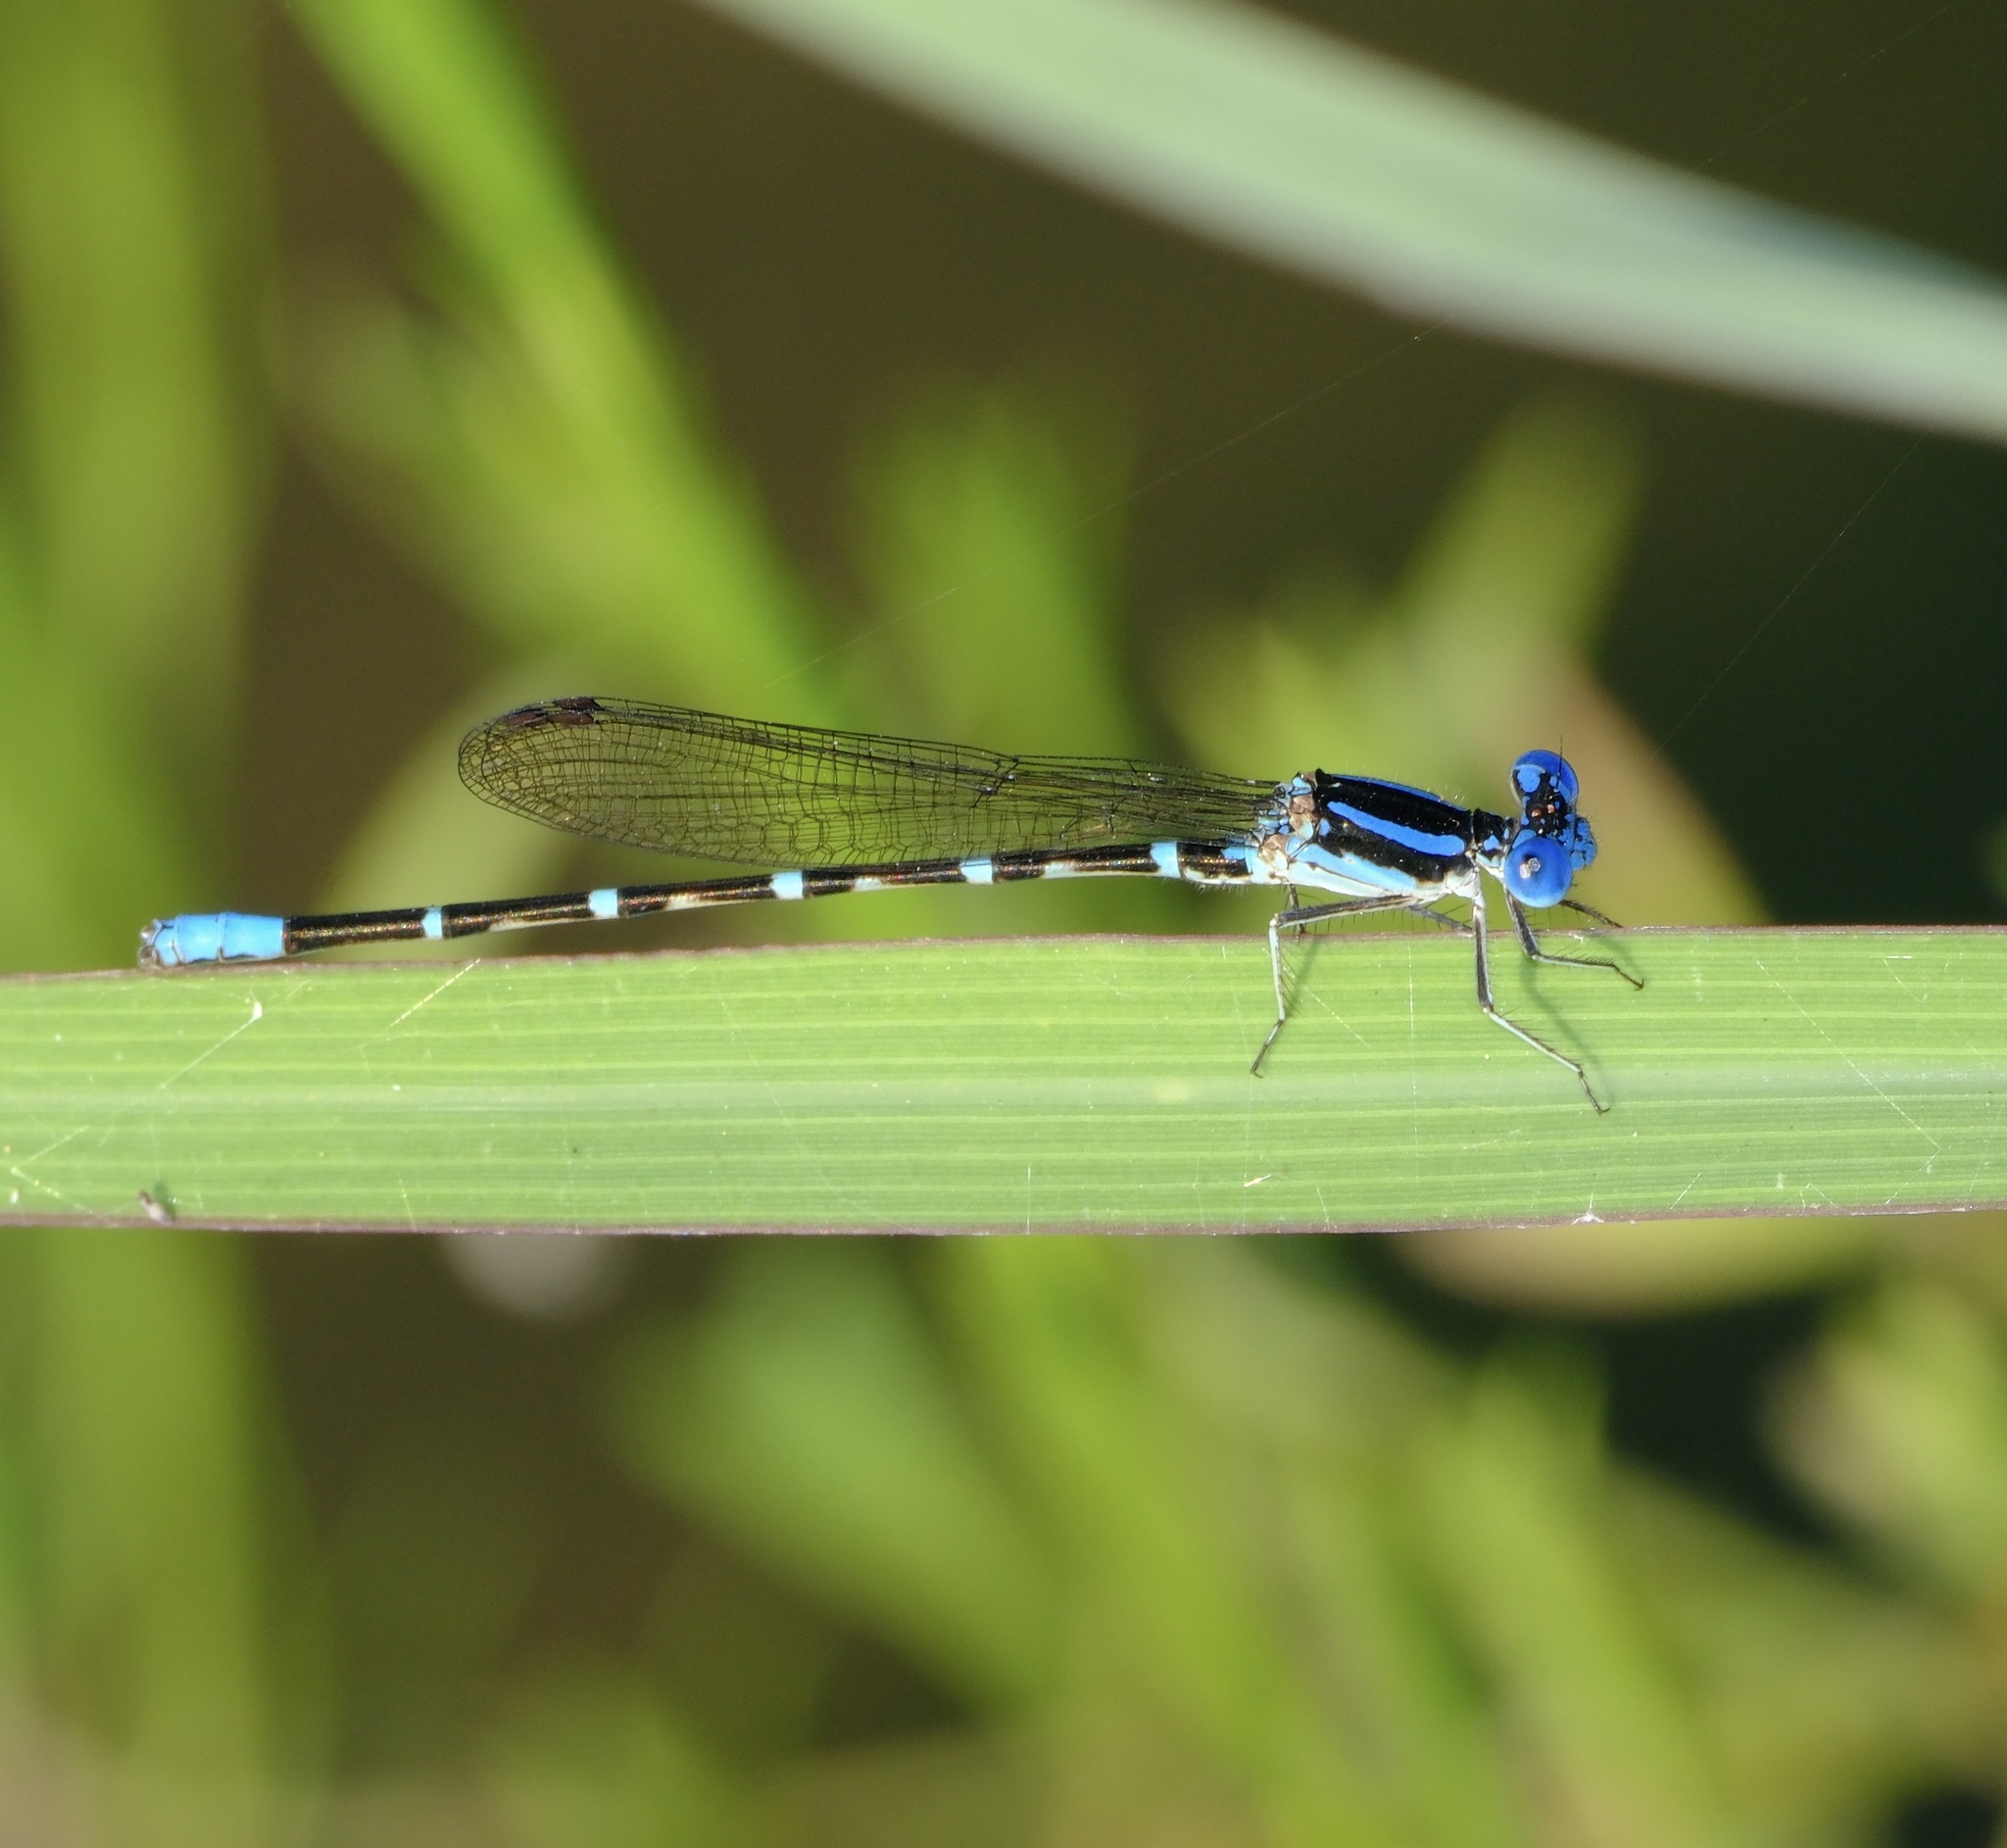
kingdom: Animalia
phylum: Arthropoda
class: Insecta
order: Odonata
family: Coenagrionidae
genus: Argia
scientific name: Argia sedula
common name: Blue-ringed dancer
